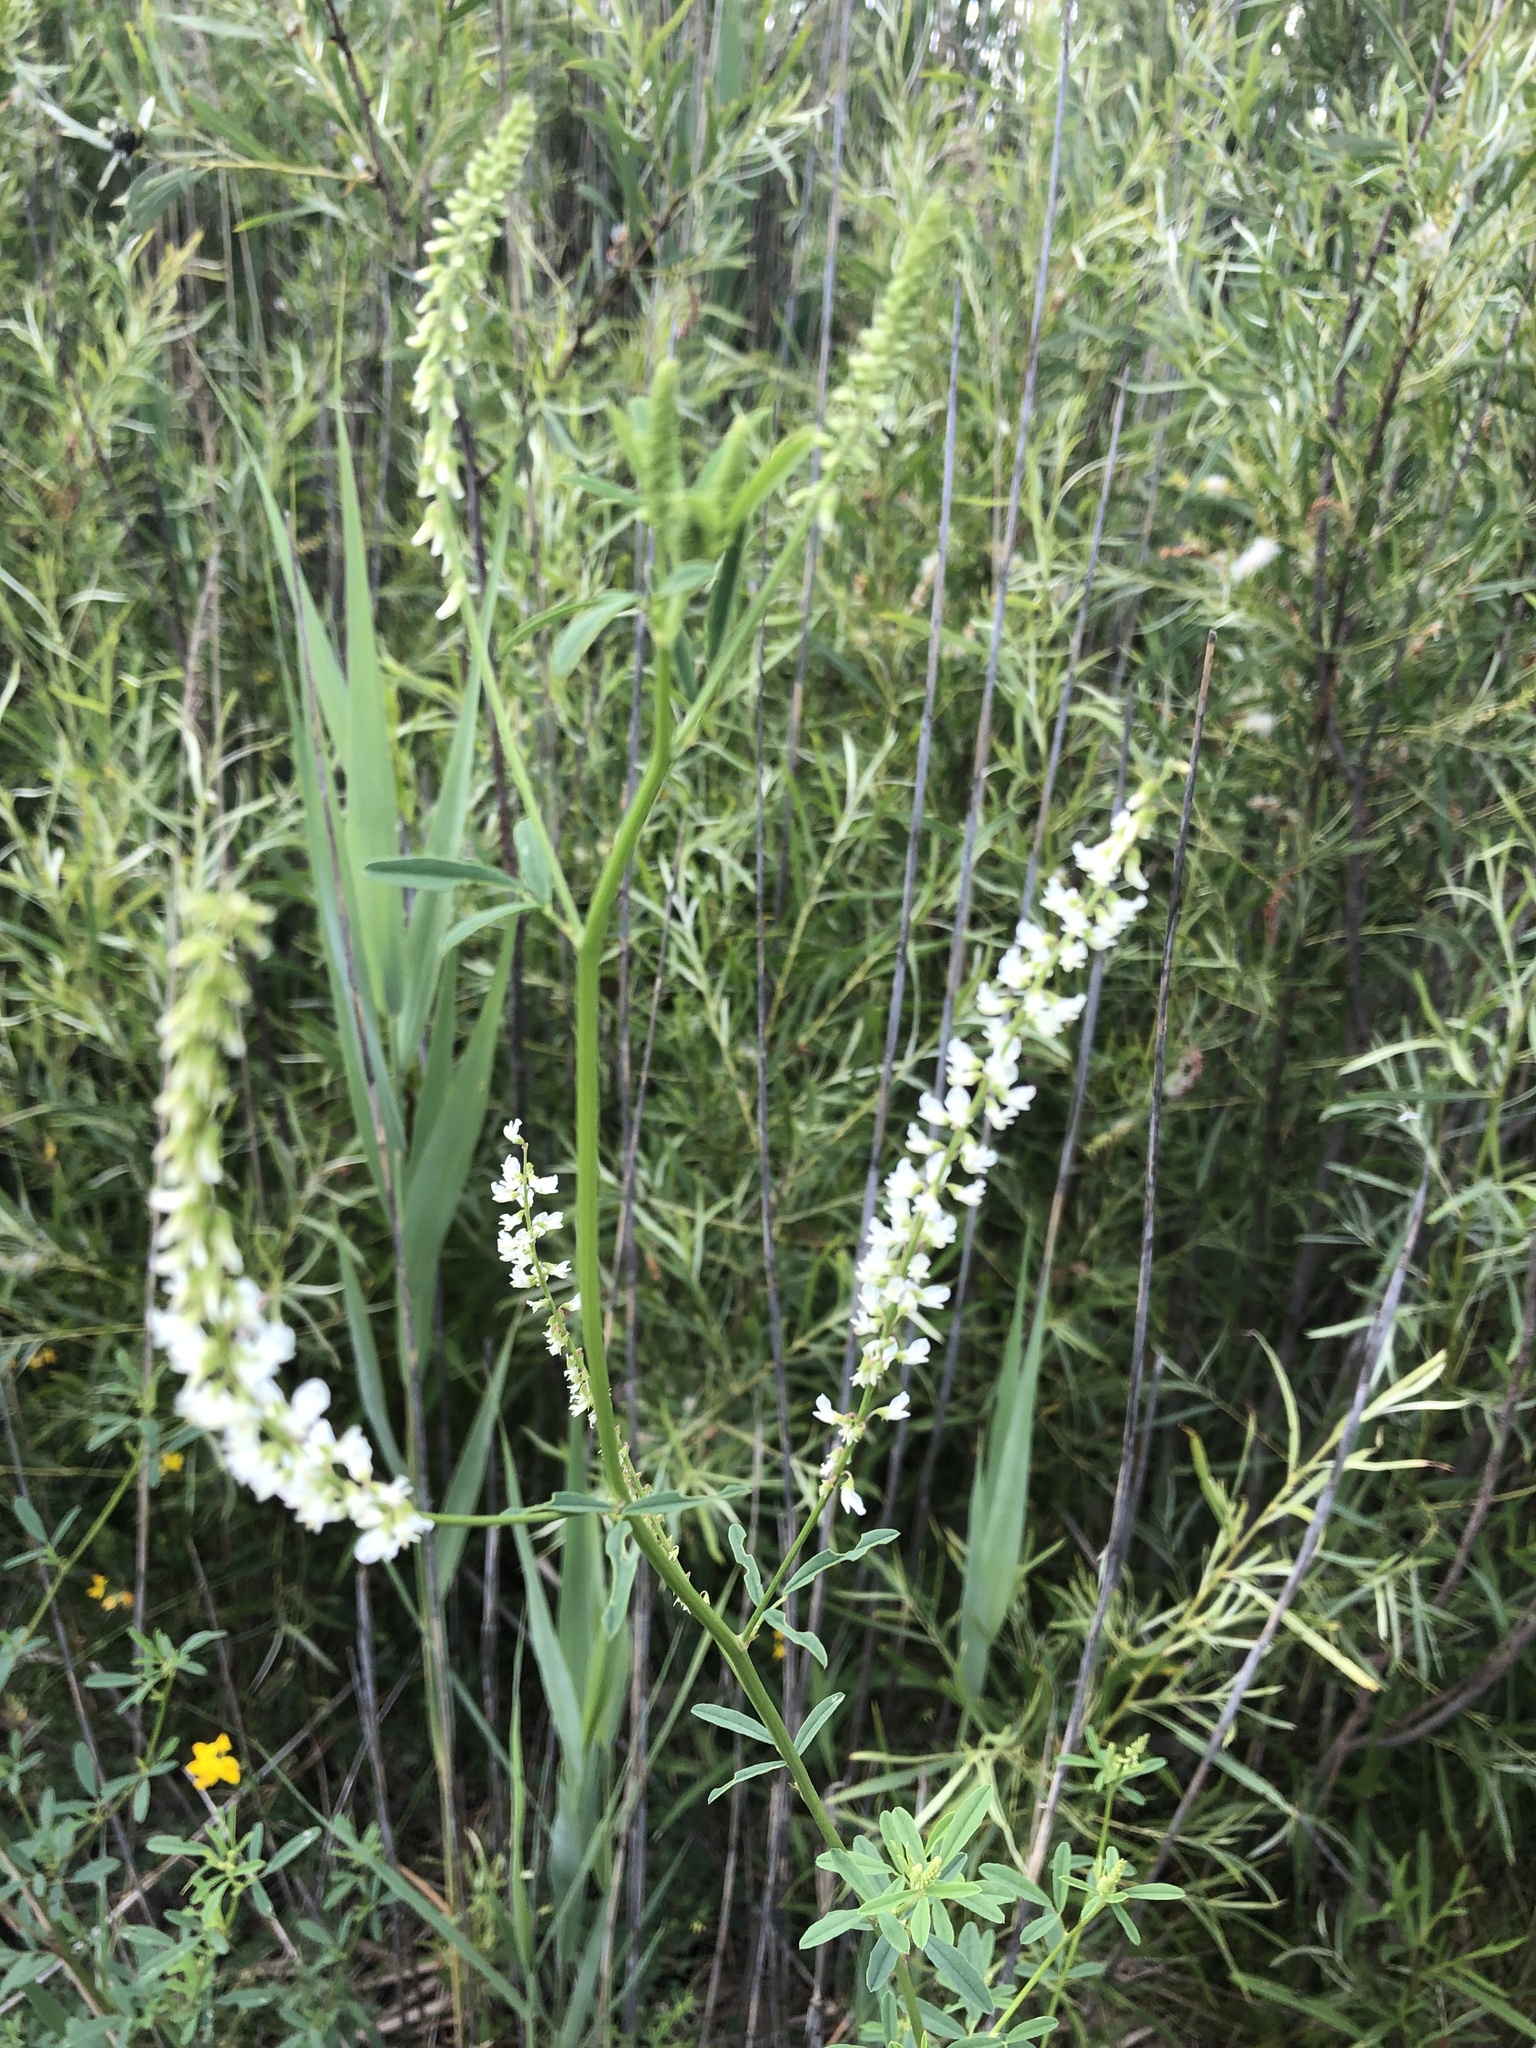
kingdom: Plantae
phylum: Tracheophyta
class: Magnoliopsida
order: Fabales
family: Fabaceae
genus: Melilotus
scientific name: Melilotus albus
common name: White melilot
